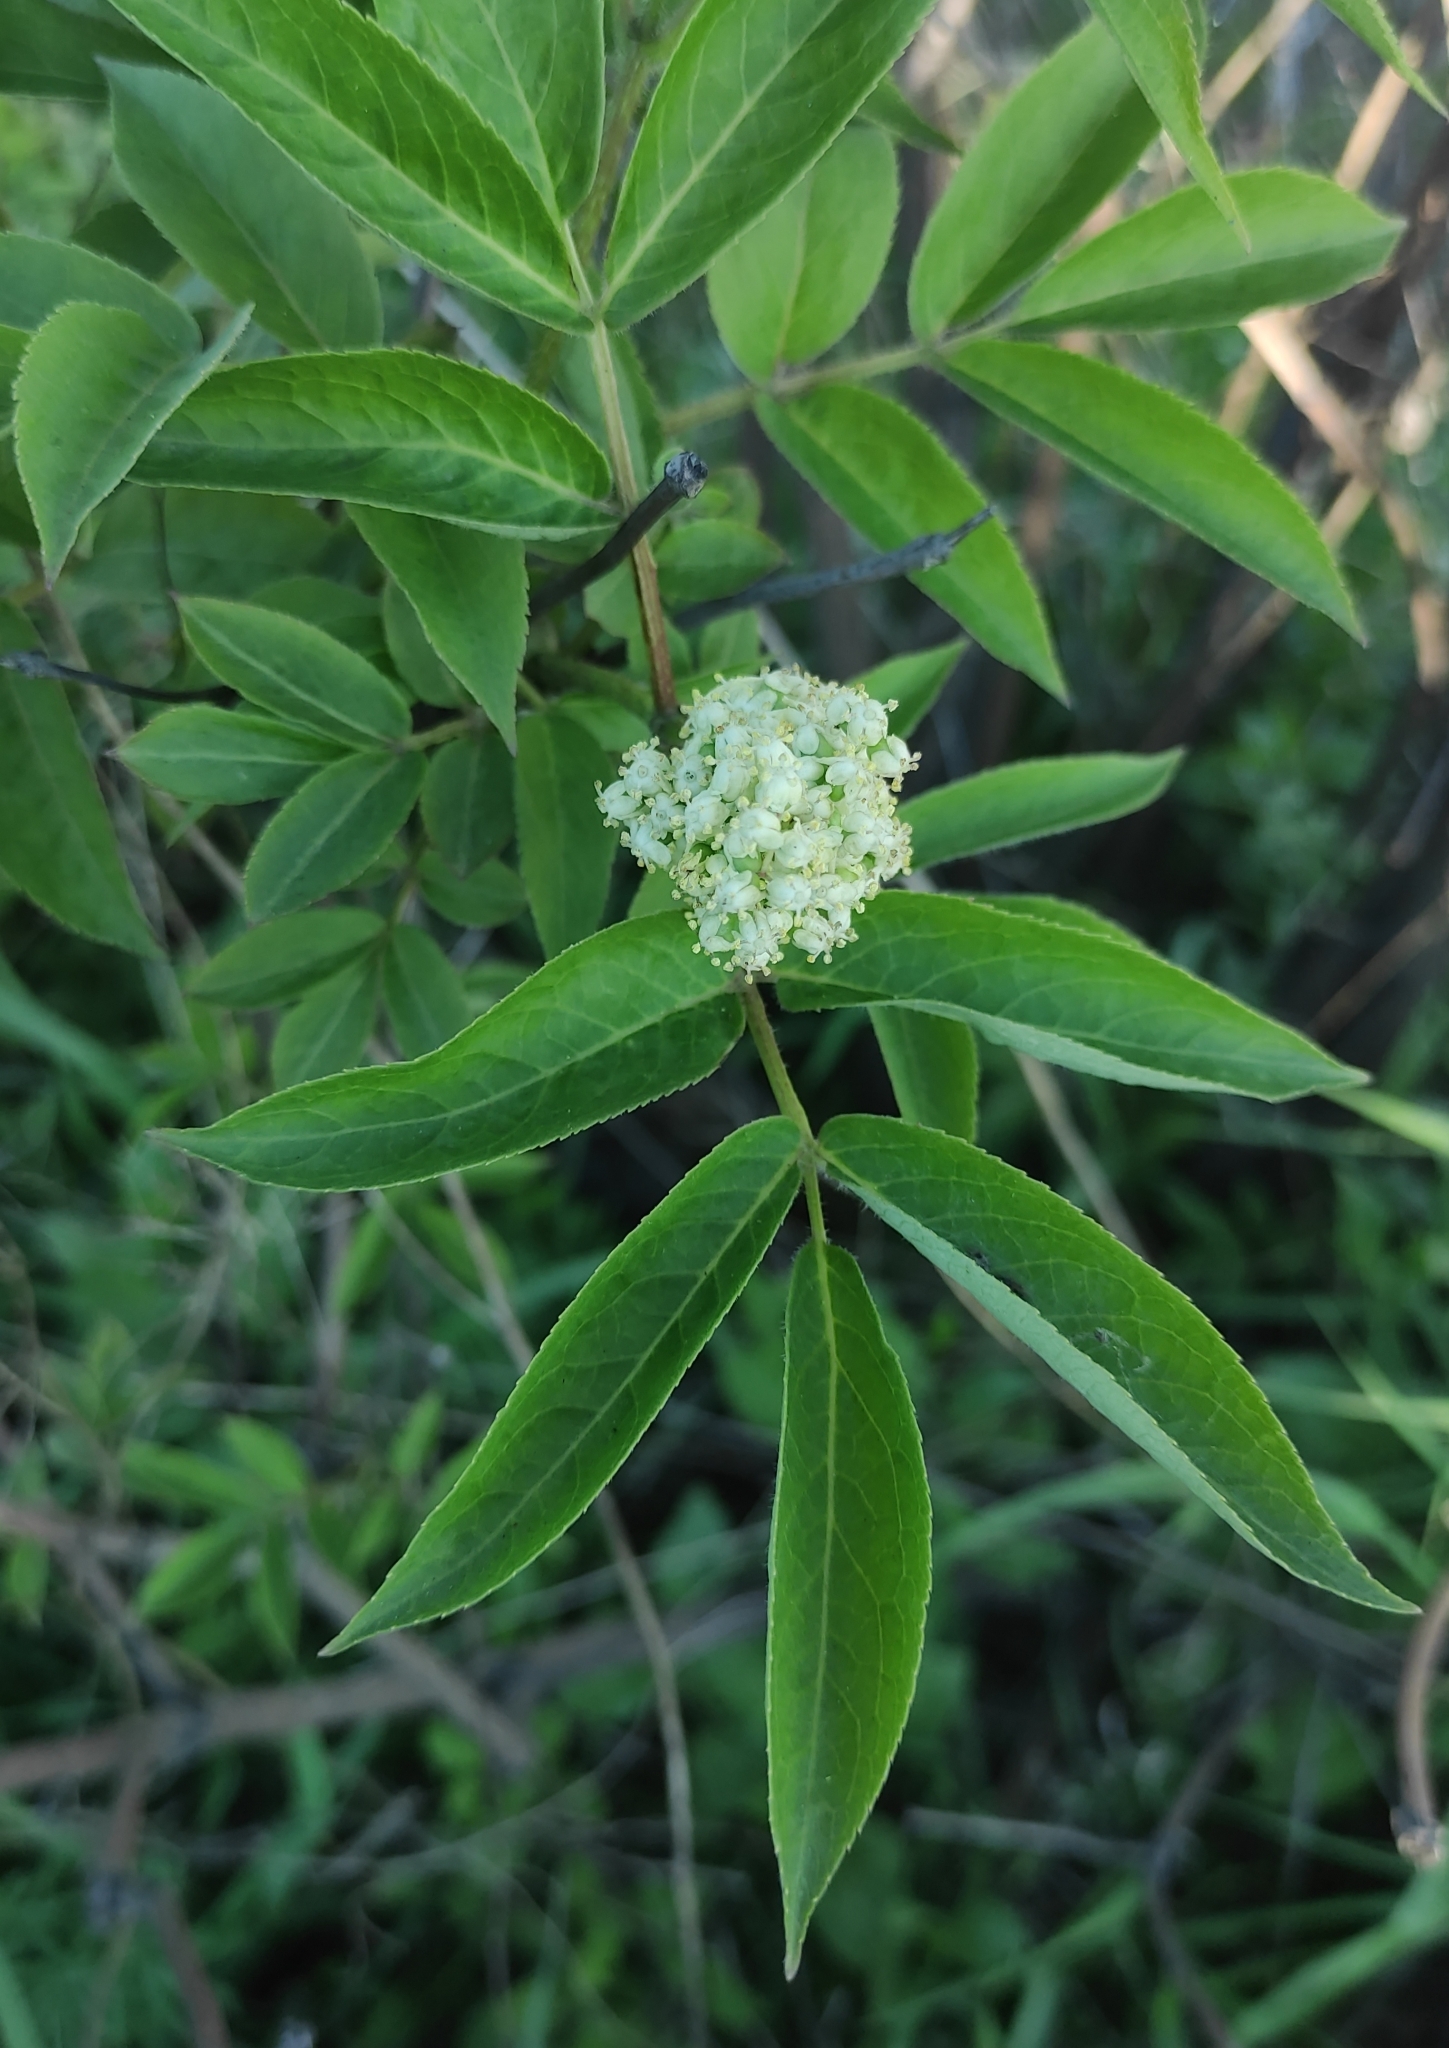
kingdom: Plantae
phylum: Tracheophyta
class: Magnoliopsida
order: Dipsacales
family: Viburnaceae
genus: Sambucus
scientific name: Sambucus sibirica
